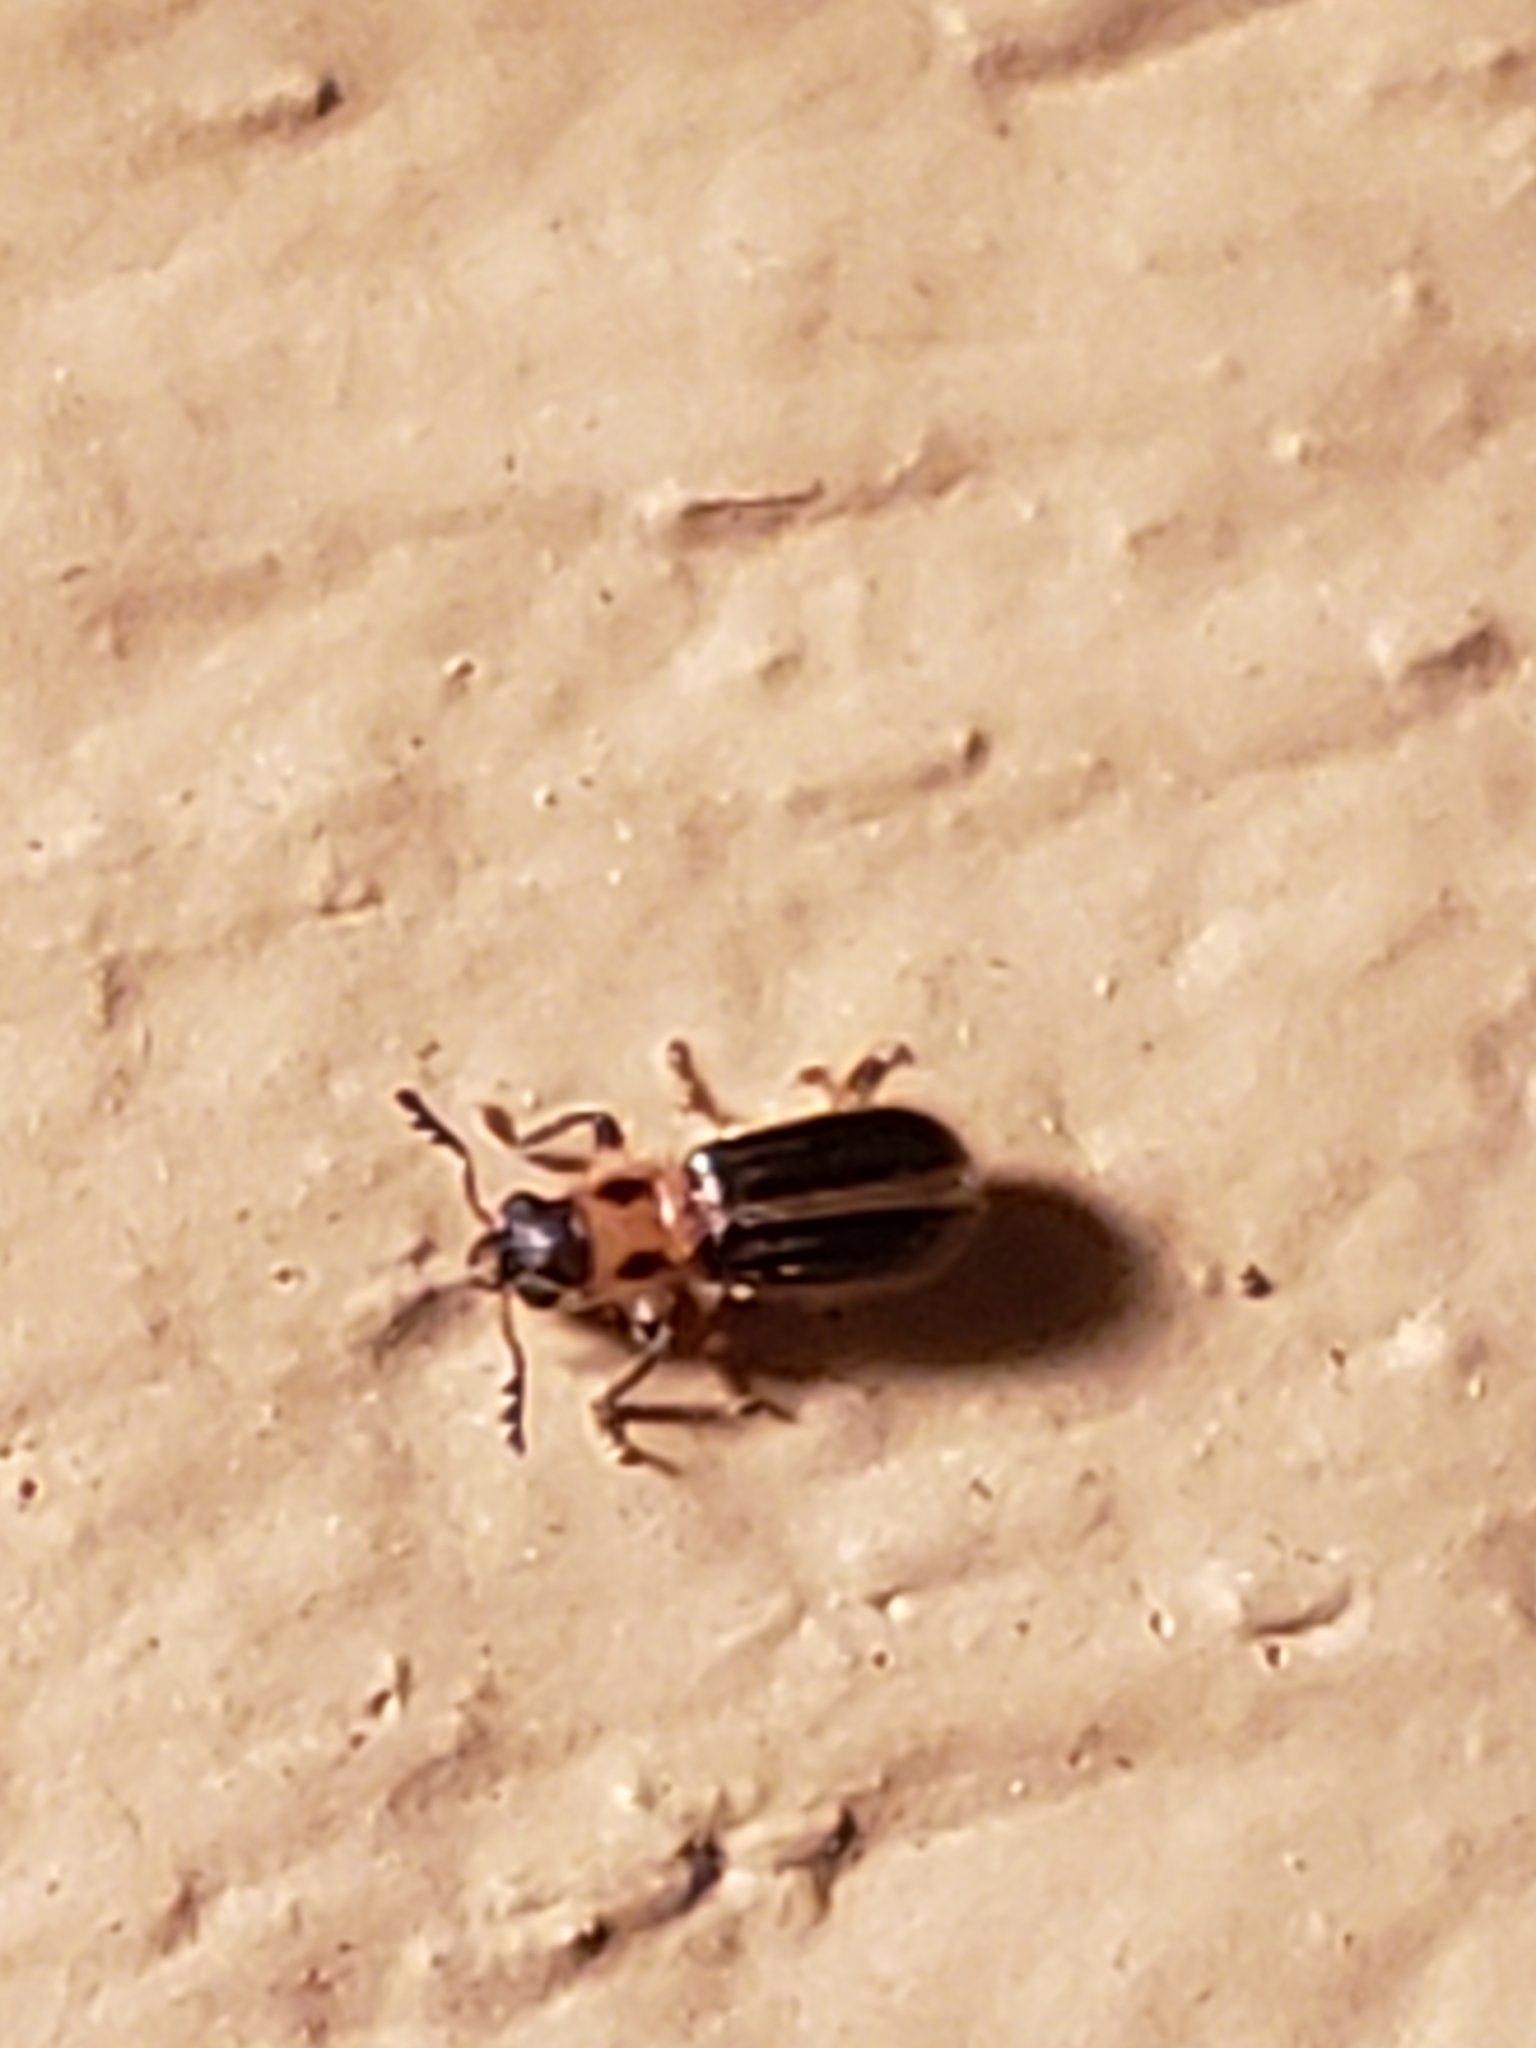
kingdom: Animalia
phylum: Arthropoda
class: Insecta
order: Coleoptera
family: Cleridae
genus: Cregya
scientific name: Cregya oculata
